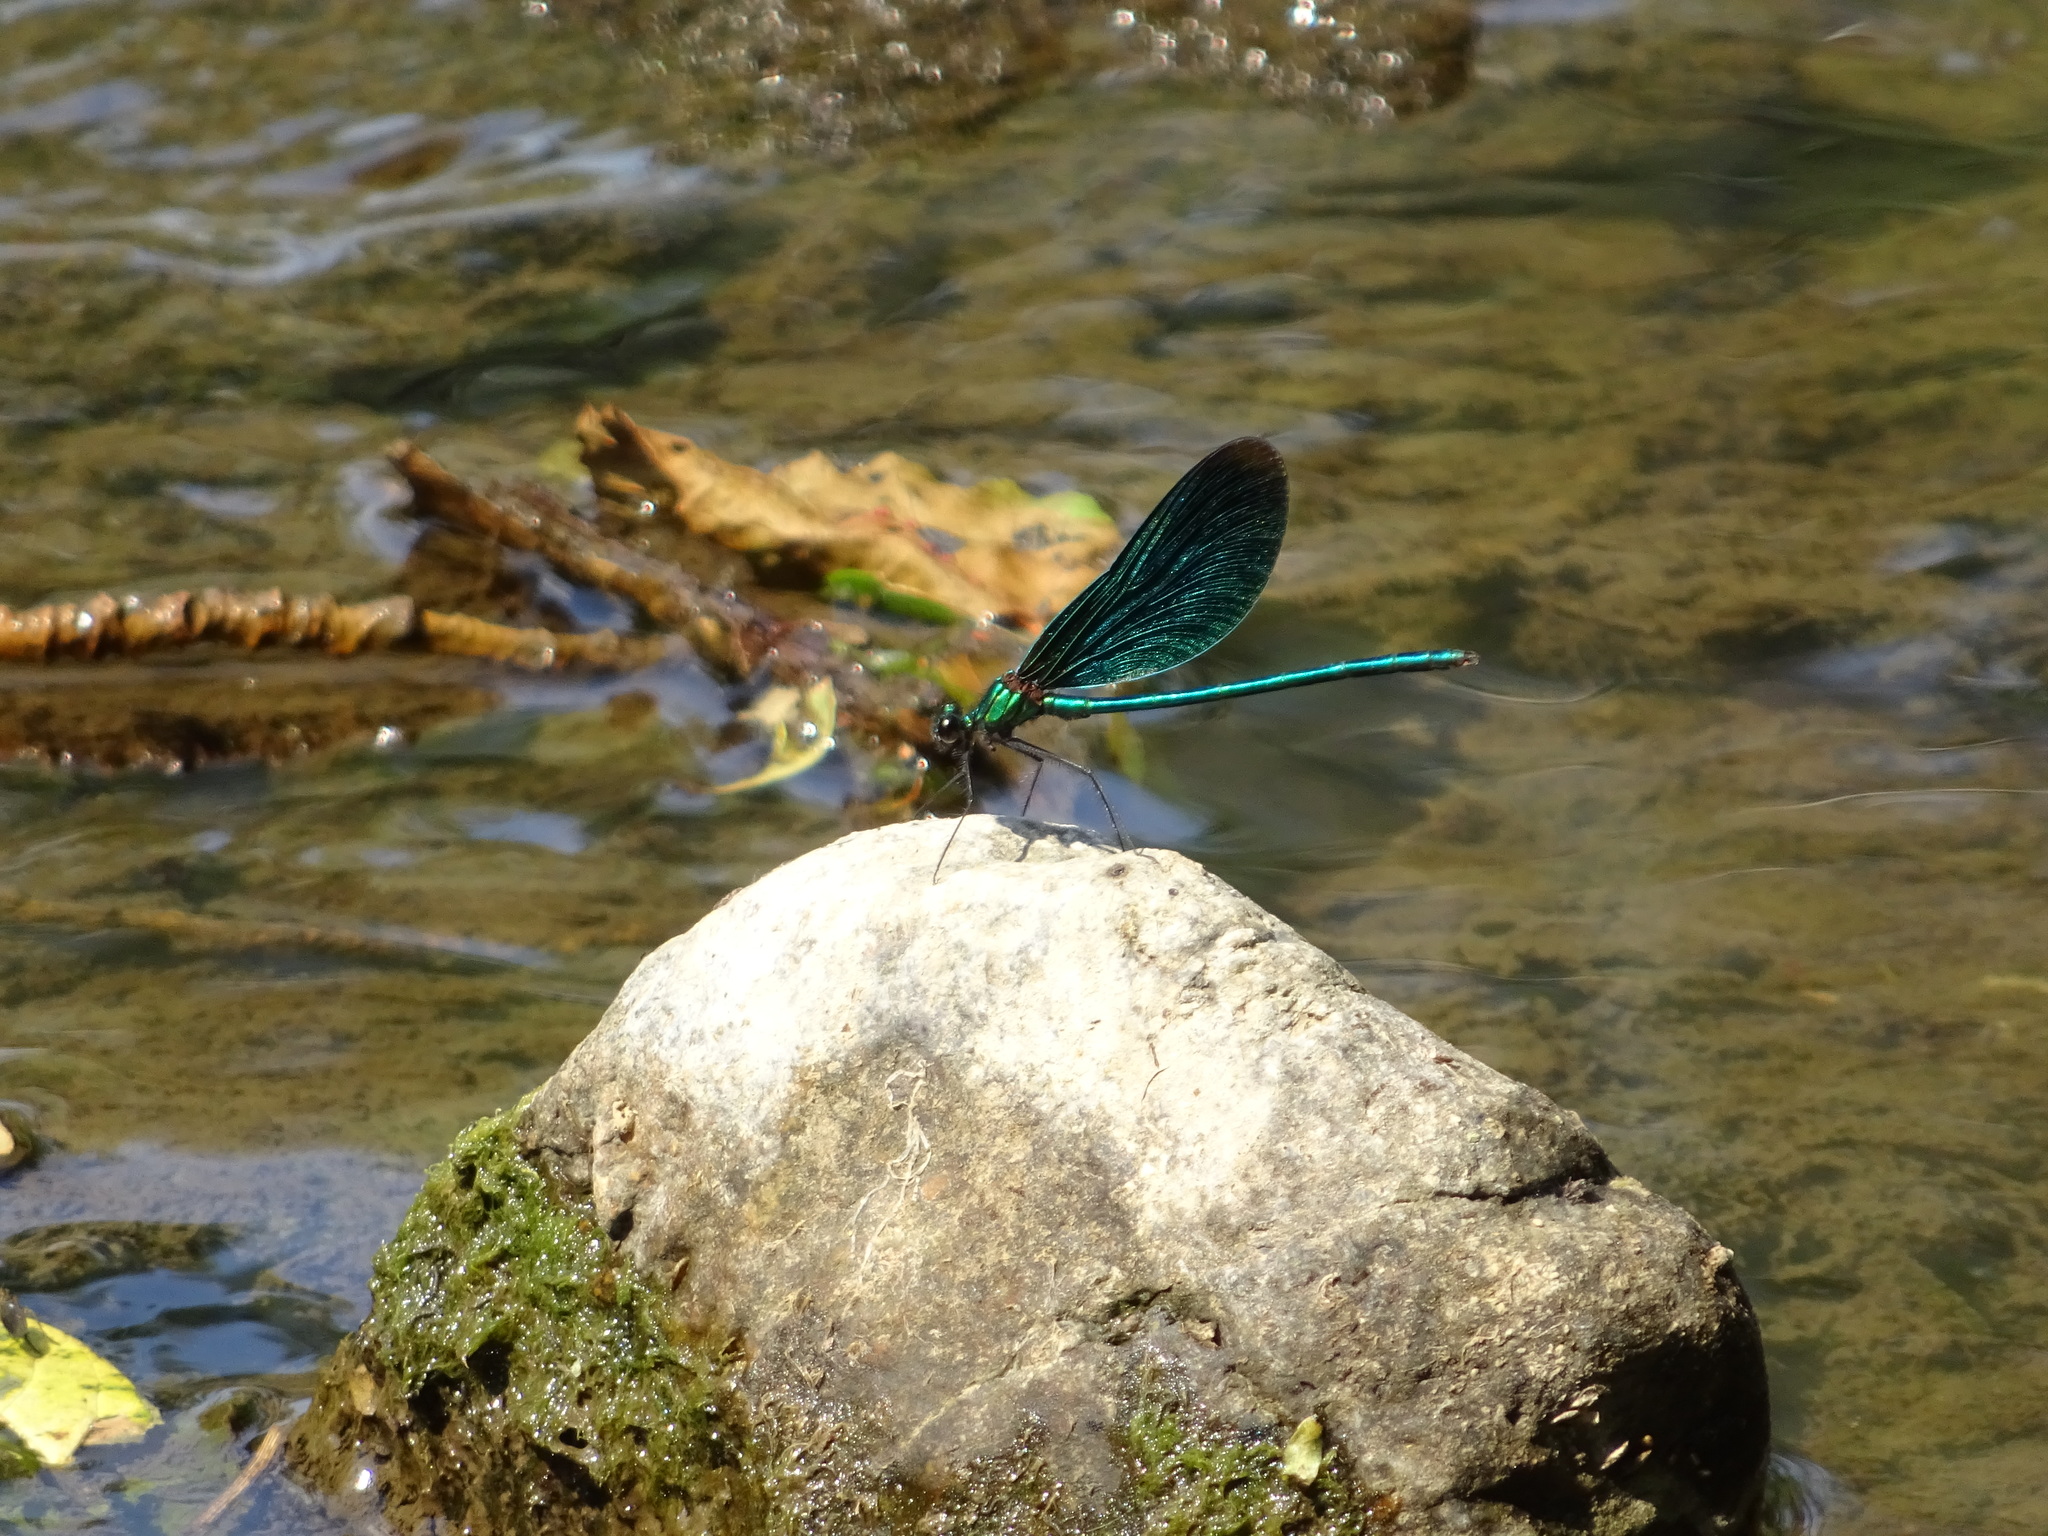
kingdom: Animalia
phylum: Arthropoda
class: Insecta
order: Odonata
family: Calopterygidae
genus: Calopteryx
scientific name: Calopteryx virgo
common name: Beautiful demoiselle
